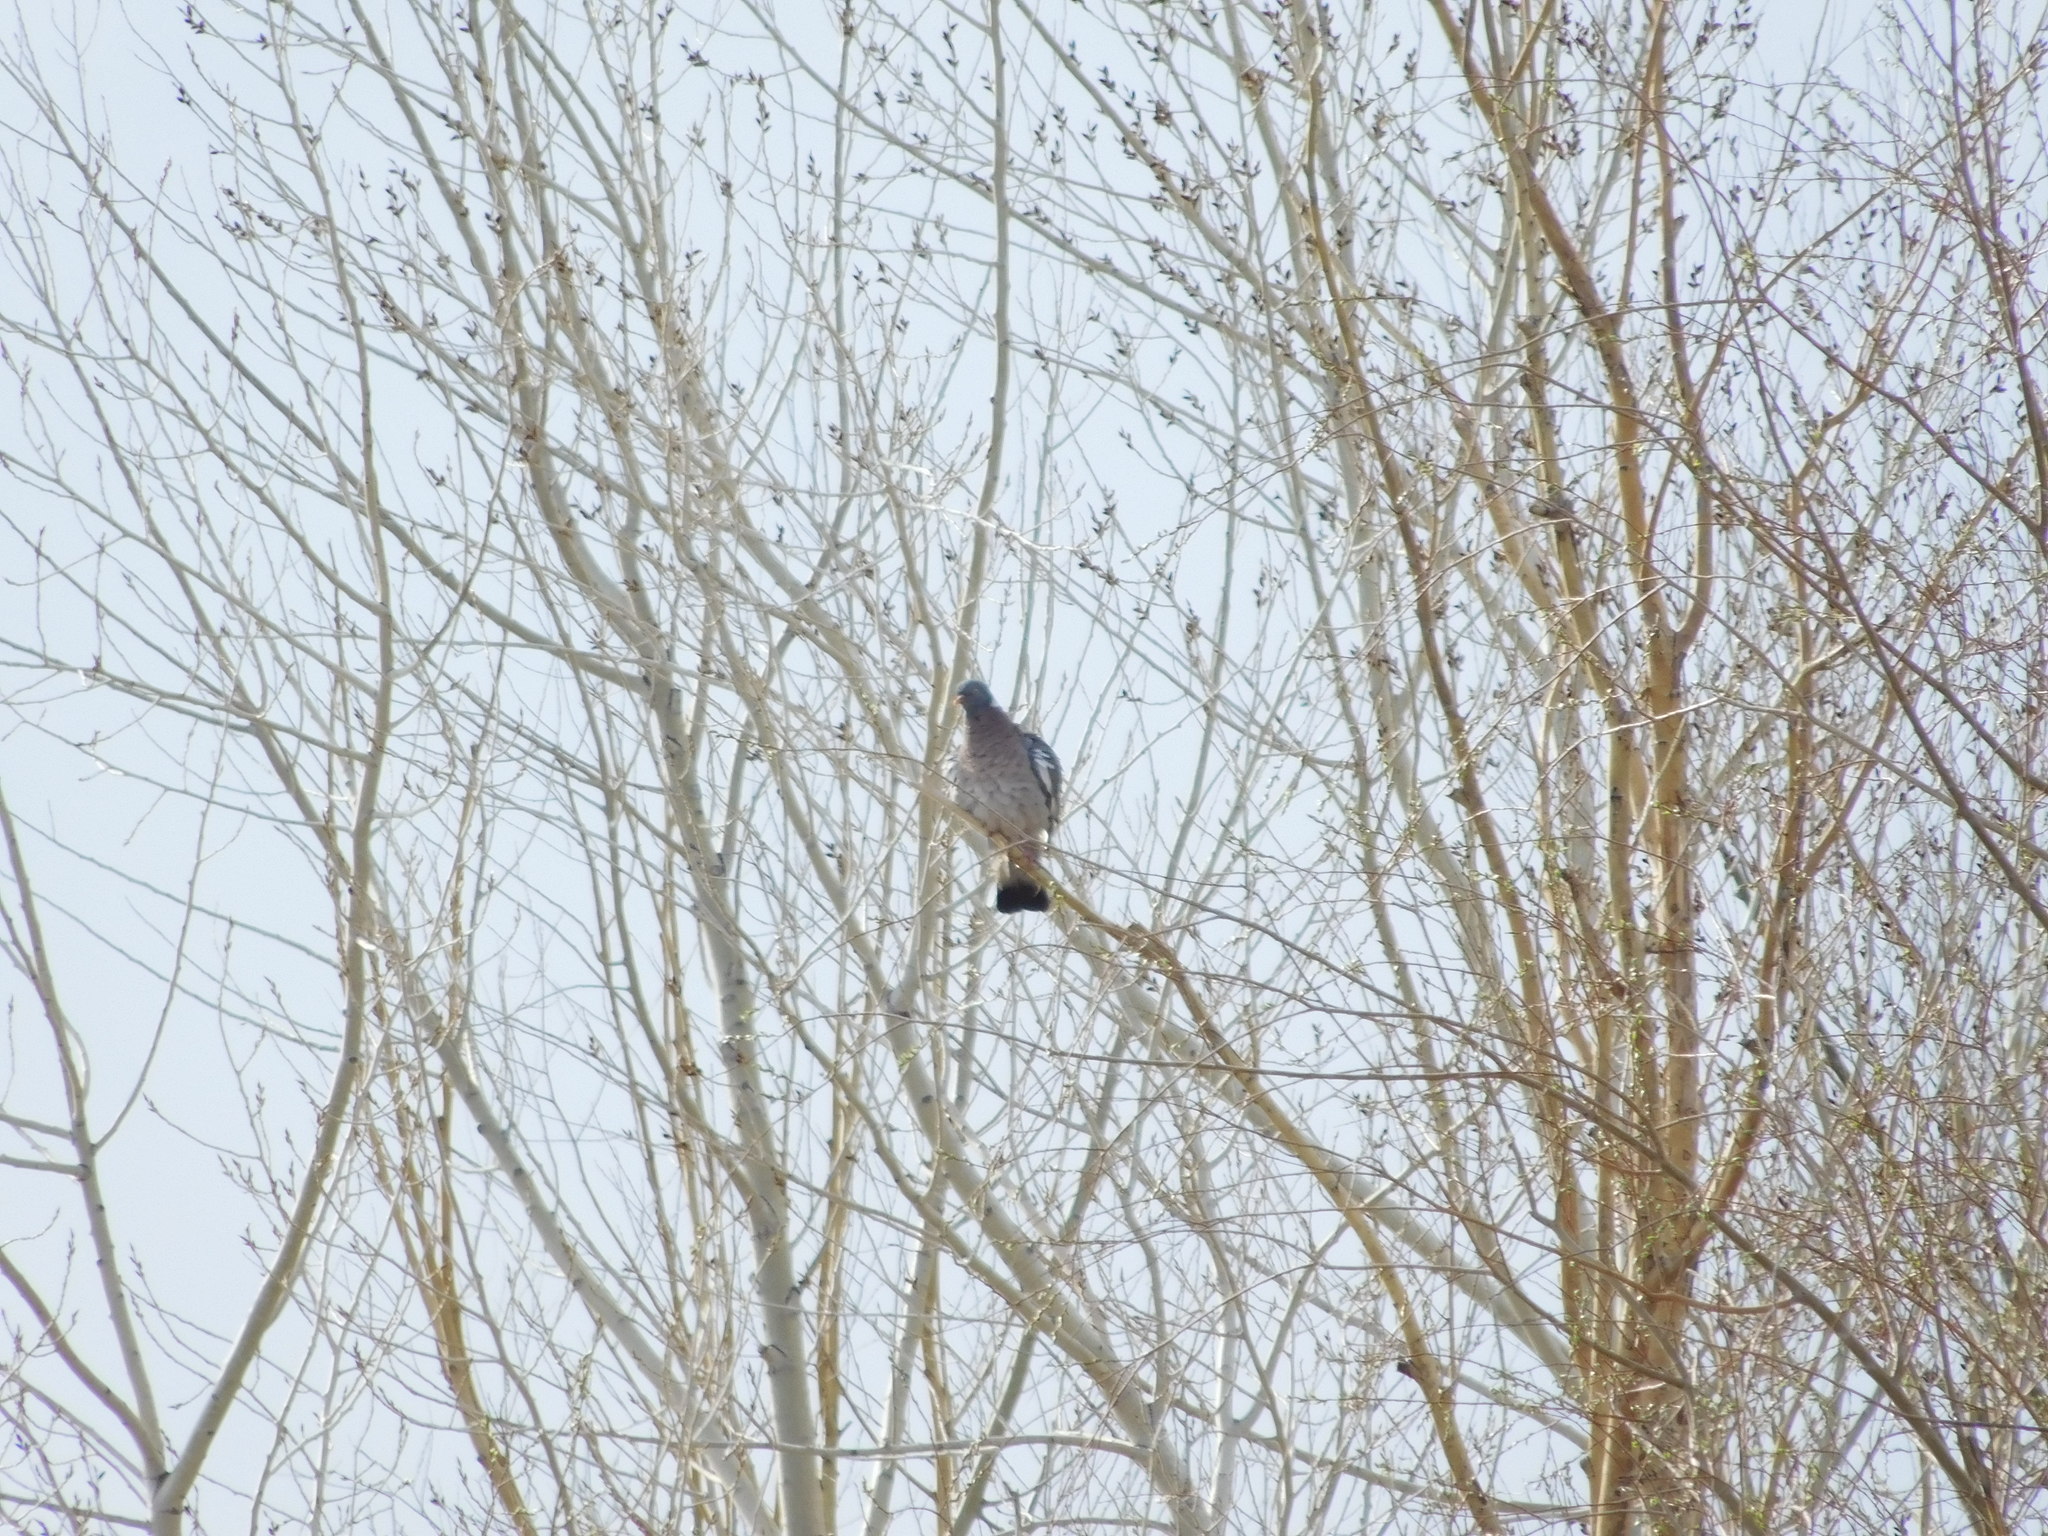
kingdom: Animalia
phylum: Chordata
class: Aves
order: Columbiformes
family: Columbidae
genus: Columba
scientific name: Columba palumbus
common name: Common wood pigeon
